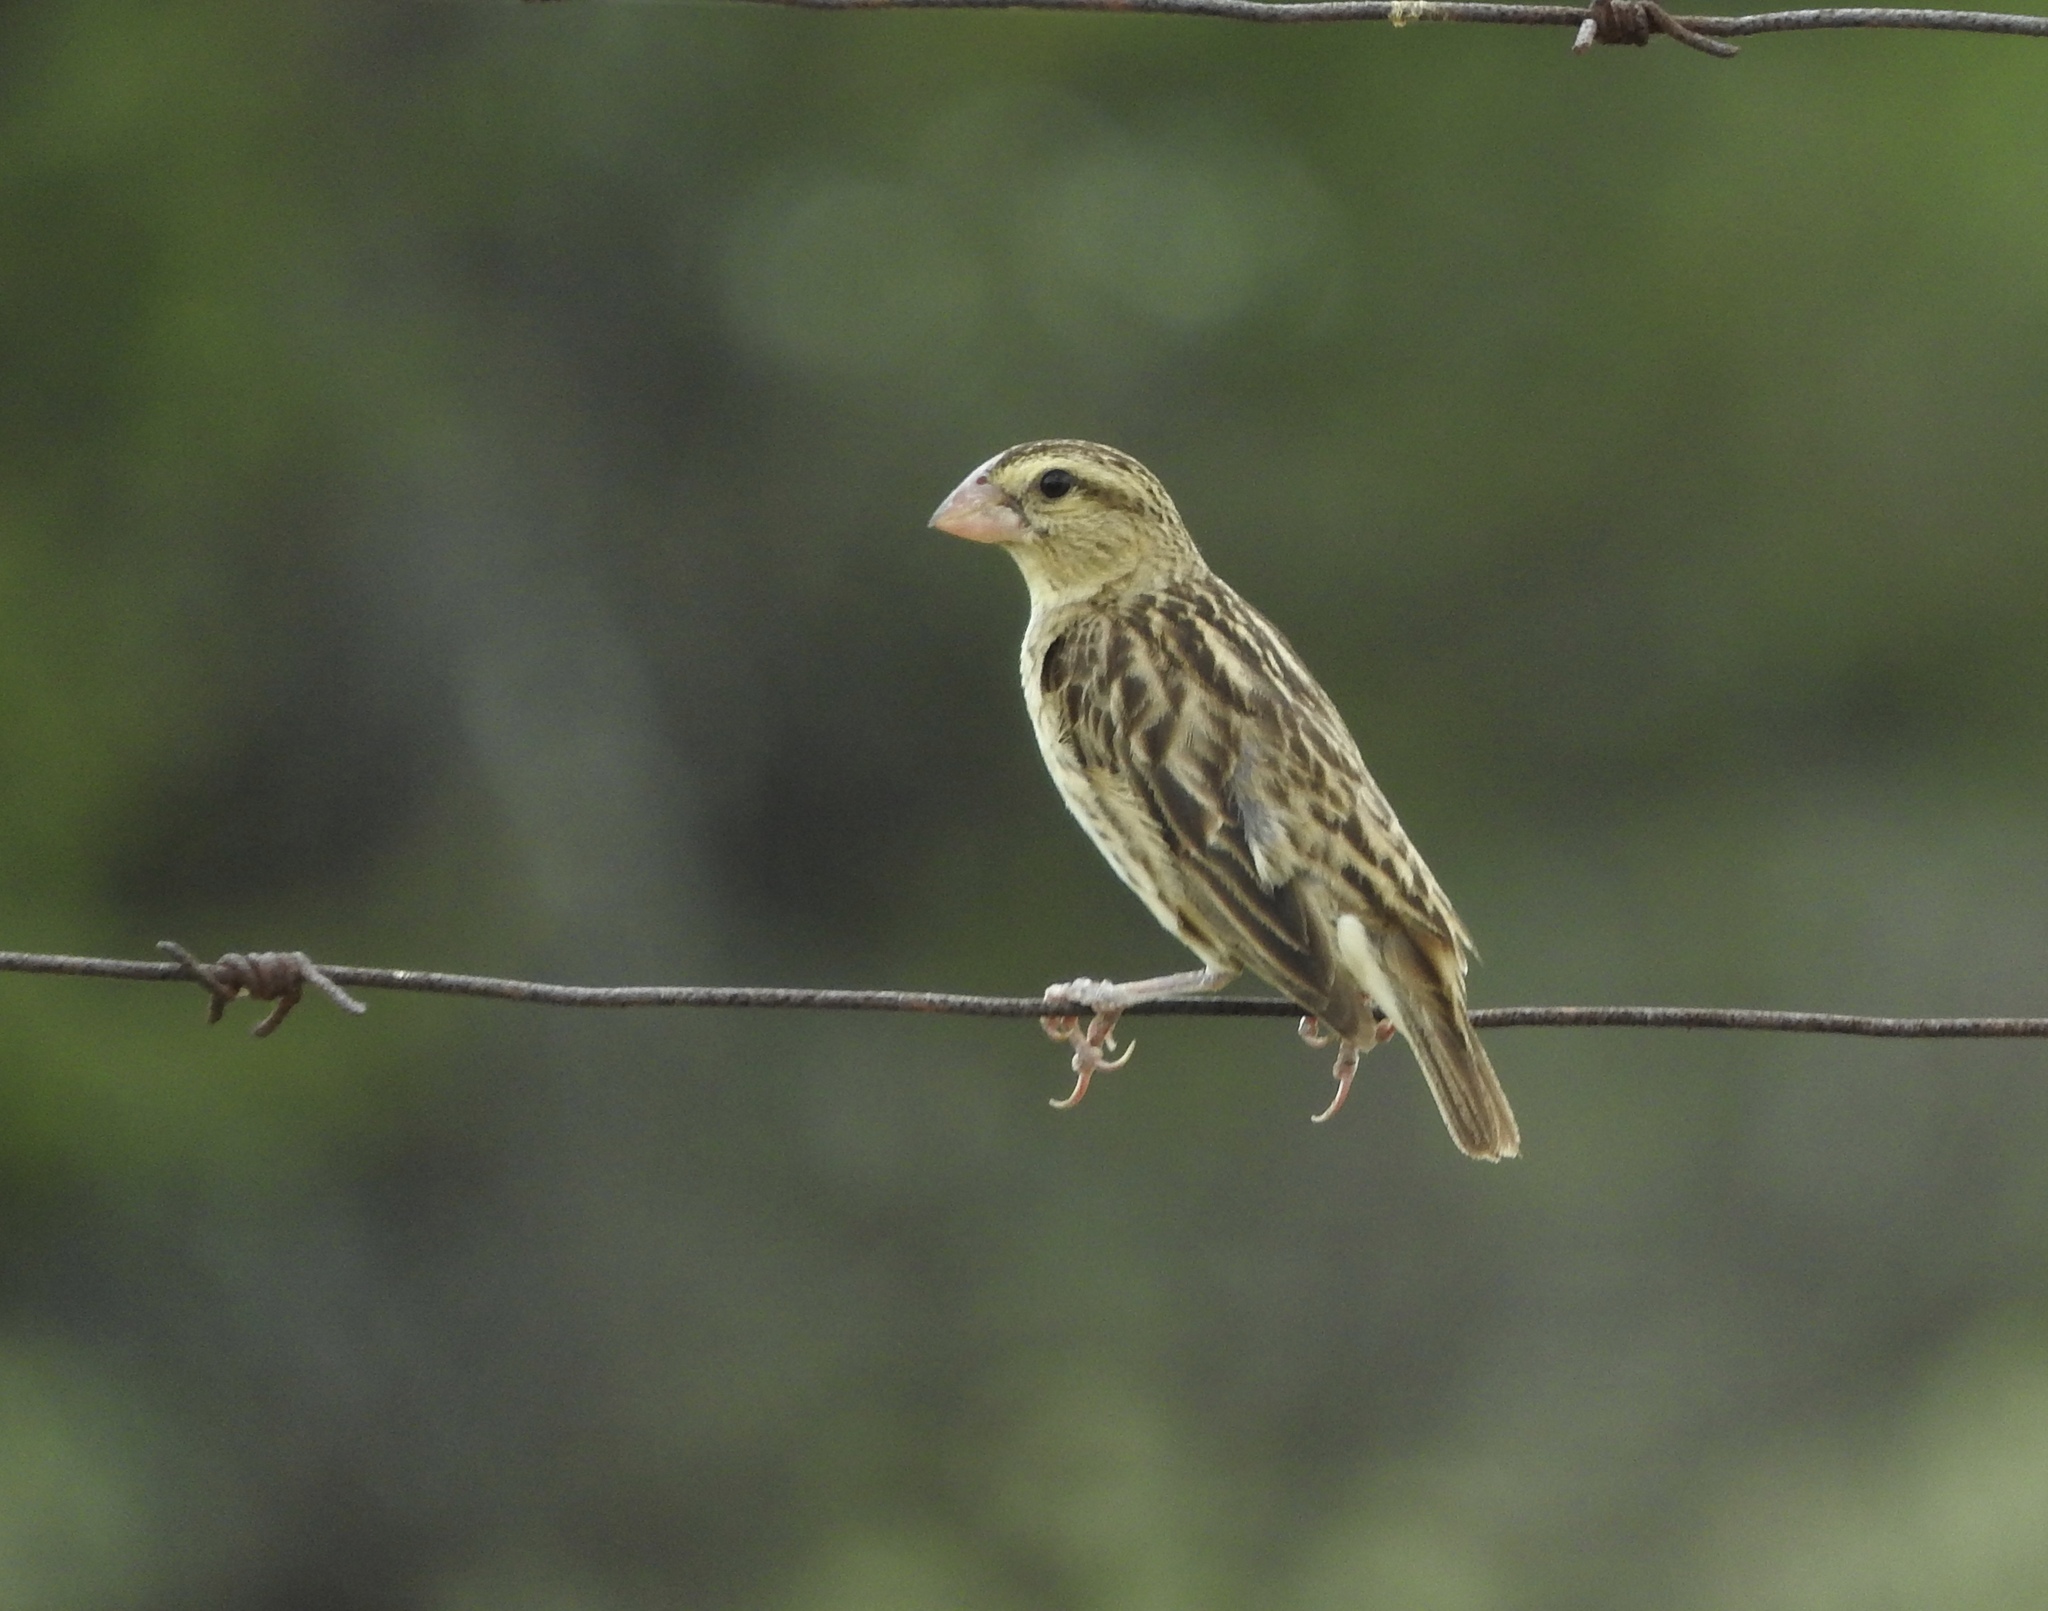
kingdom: Animalia
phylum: Chordata
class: Aves
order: Passeriformes
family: Viduidae
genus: Anomalospiza
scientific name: Anomalospiza imberbis
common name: Cuckoo weaver
